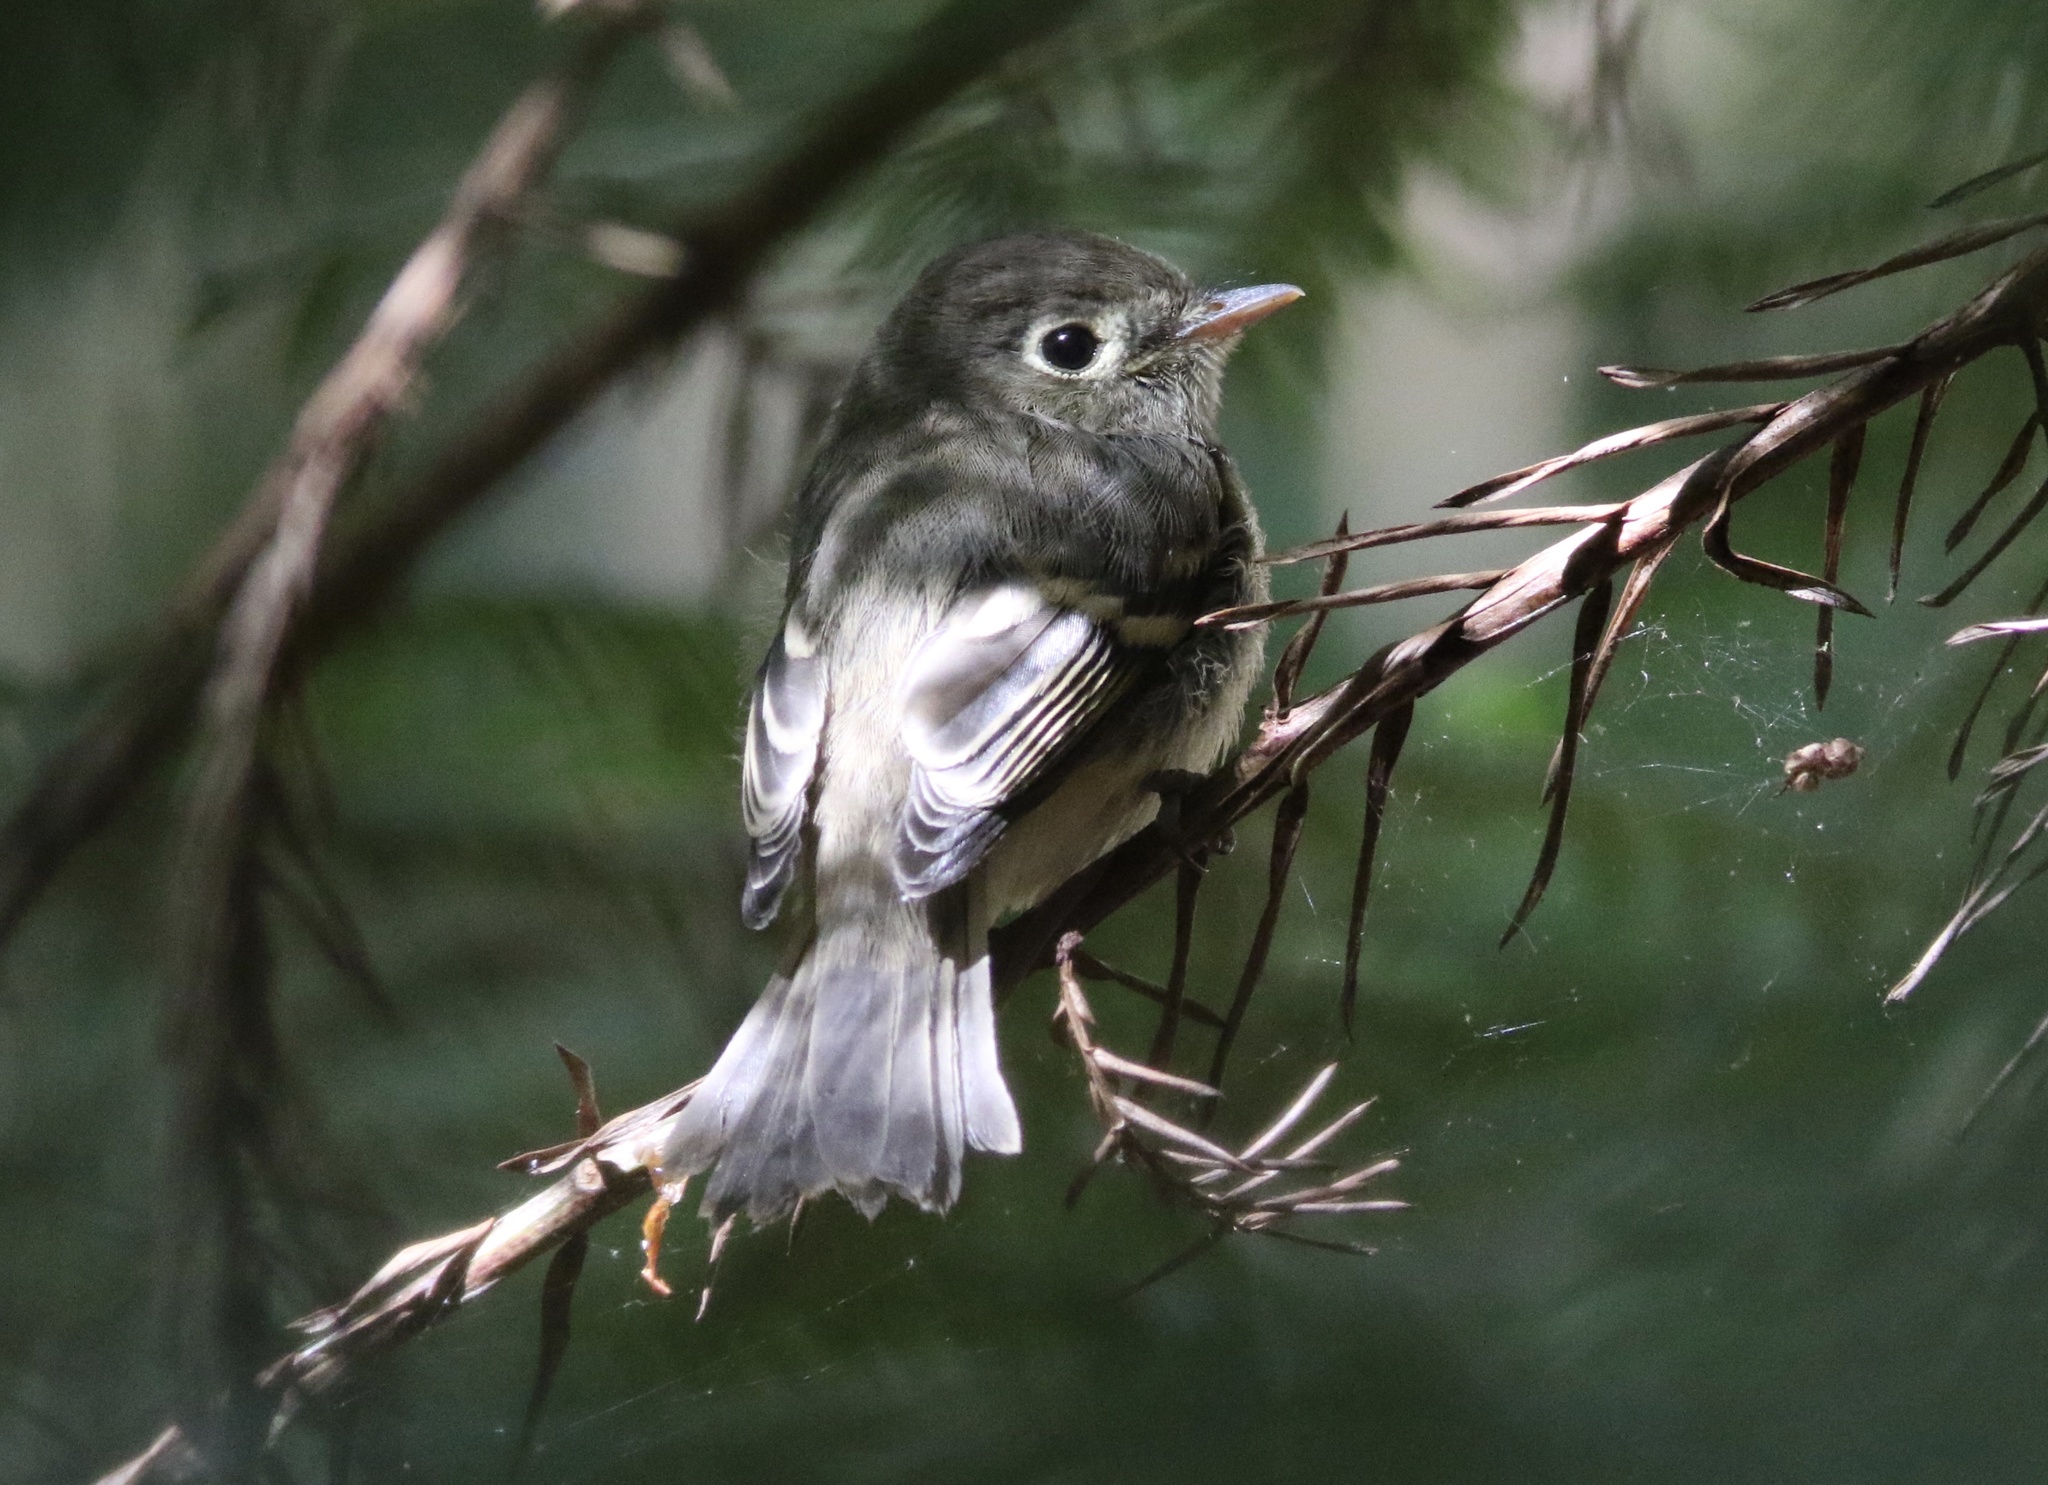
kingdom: Animalia
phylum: Chordata
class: Aves
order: Passeriformes
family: Tyrannidae
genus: Empidonax
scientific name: Empidonax difficilis
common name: Pacific-slope flycatcher
